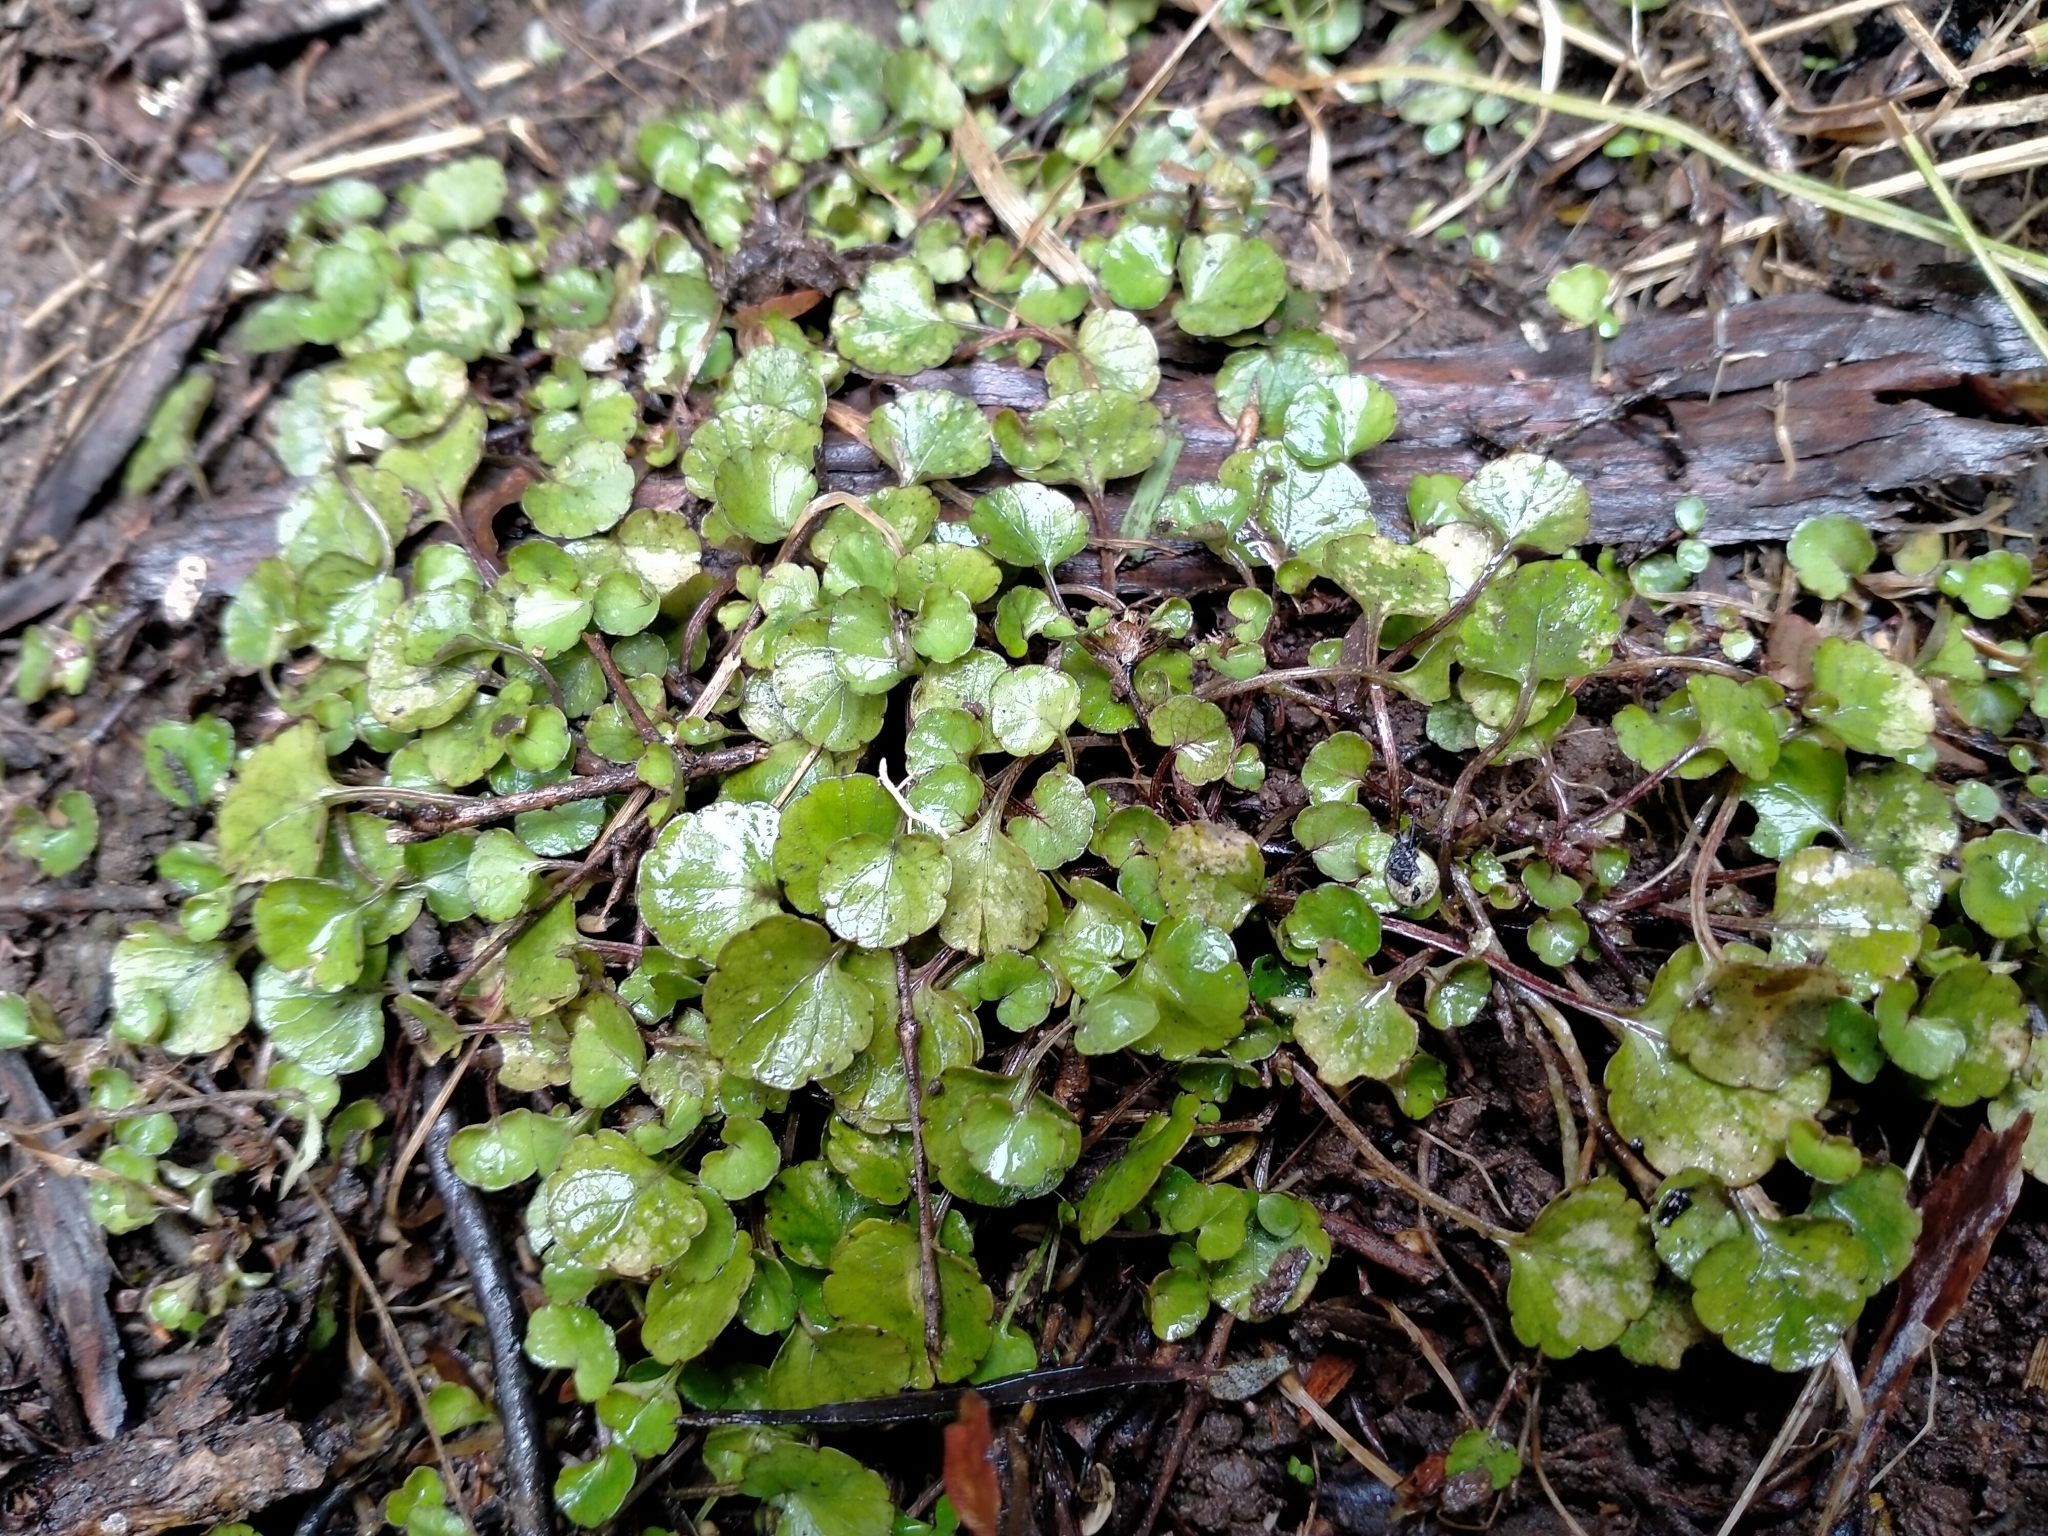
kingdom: Plantae
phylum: Tracheophyta
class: Magnoliopsida
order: Malpighiales
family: Violaceae
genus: Viola
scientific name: Viola filicaulis
